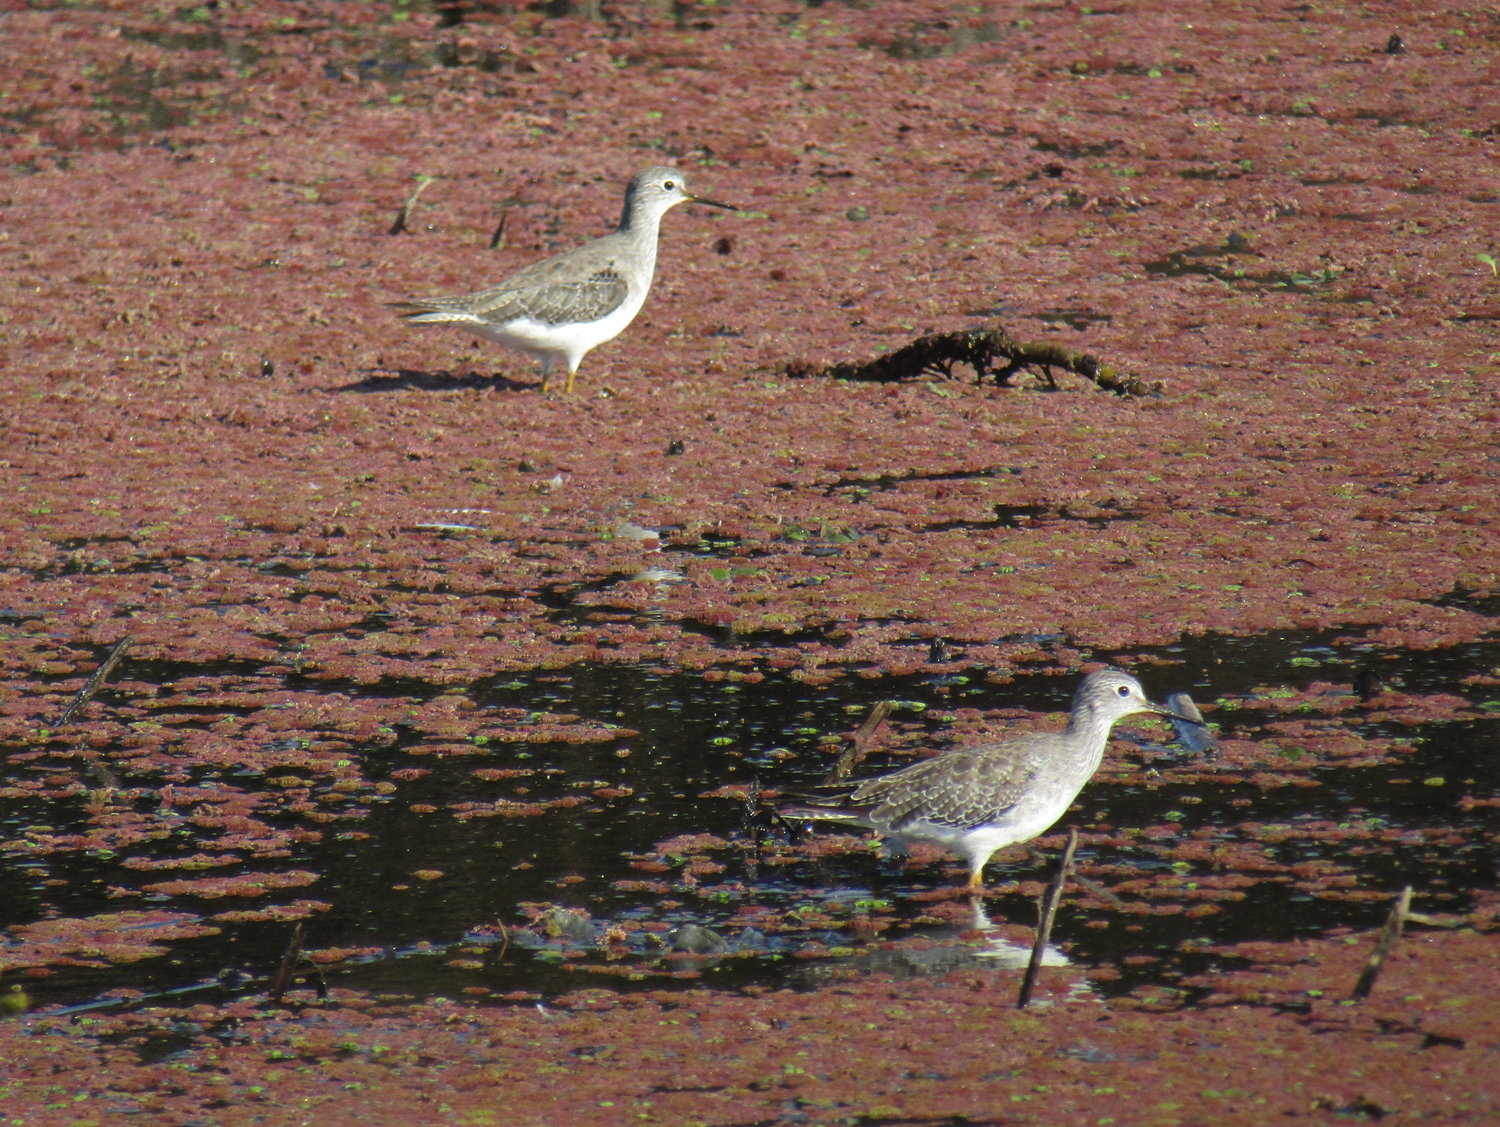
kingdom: Animalia
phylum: Chordata
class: Aves
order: Charadriiformes
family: Scolopacidae
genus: Tringa
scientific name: Tringa flavipes
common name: Lesser yellowlegs
